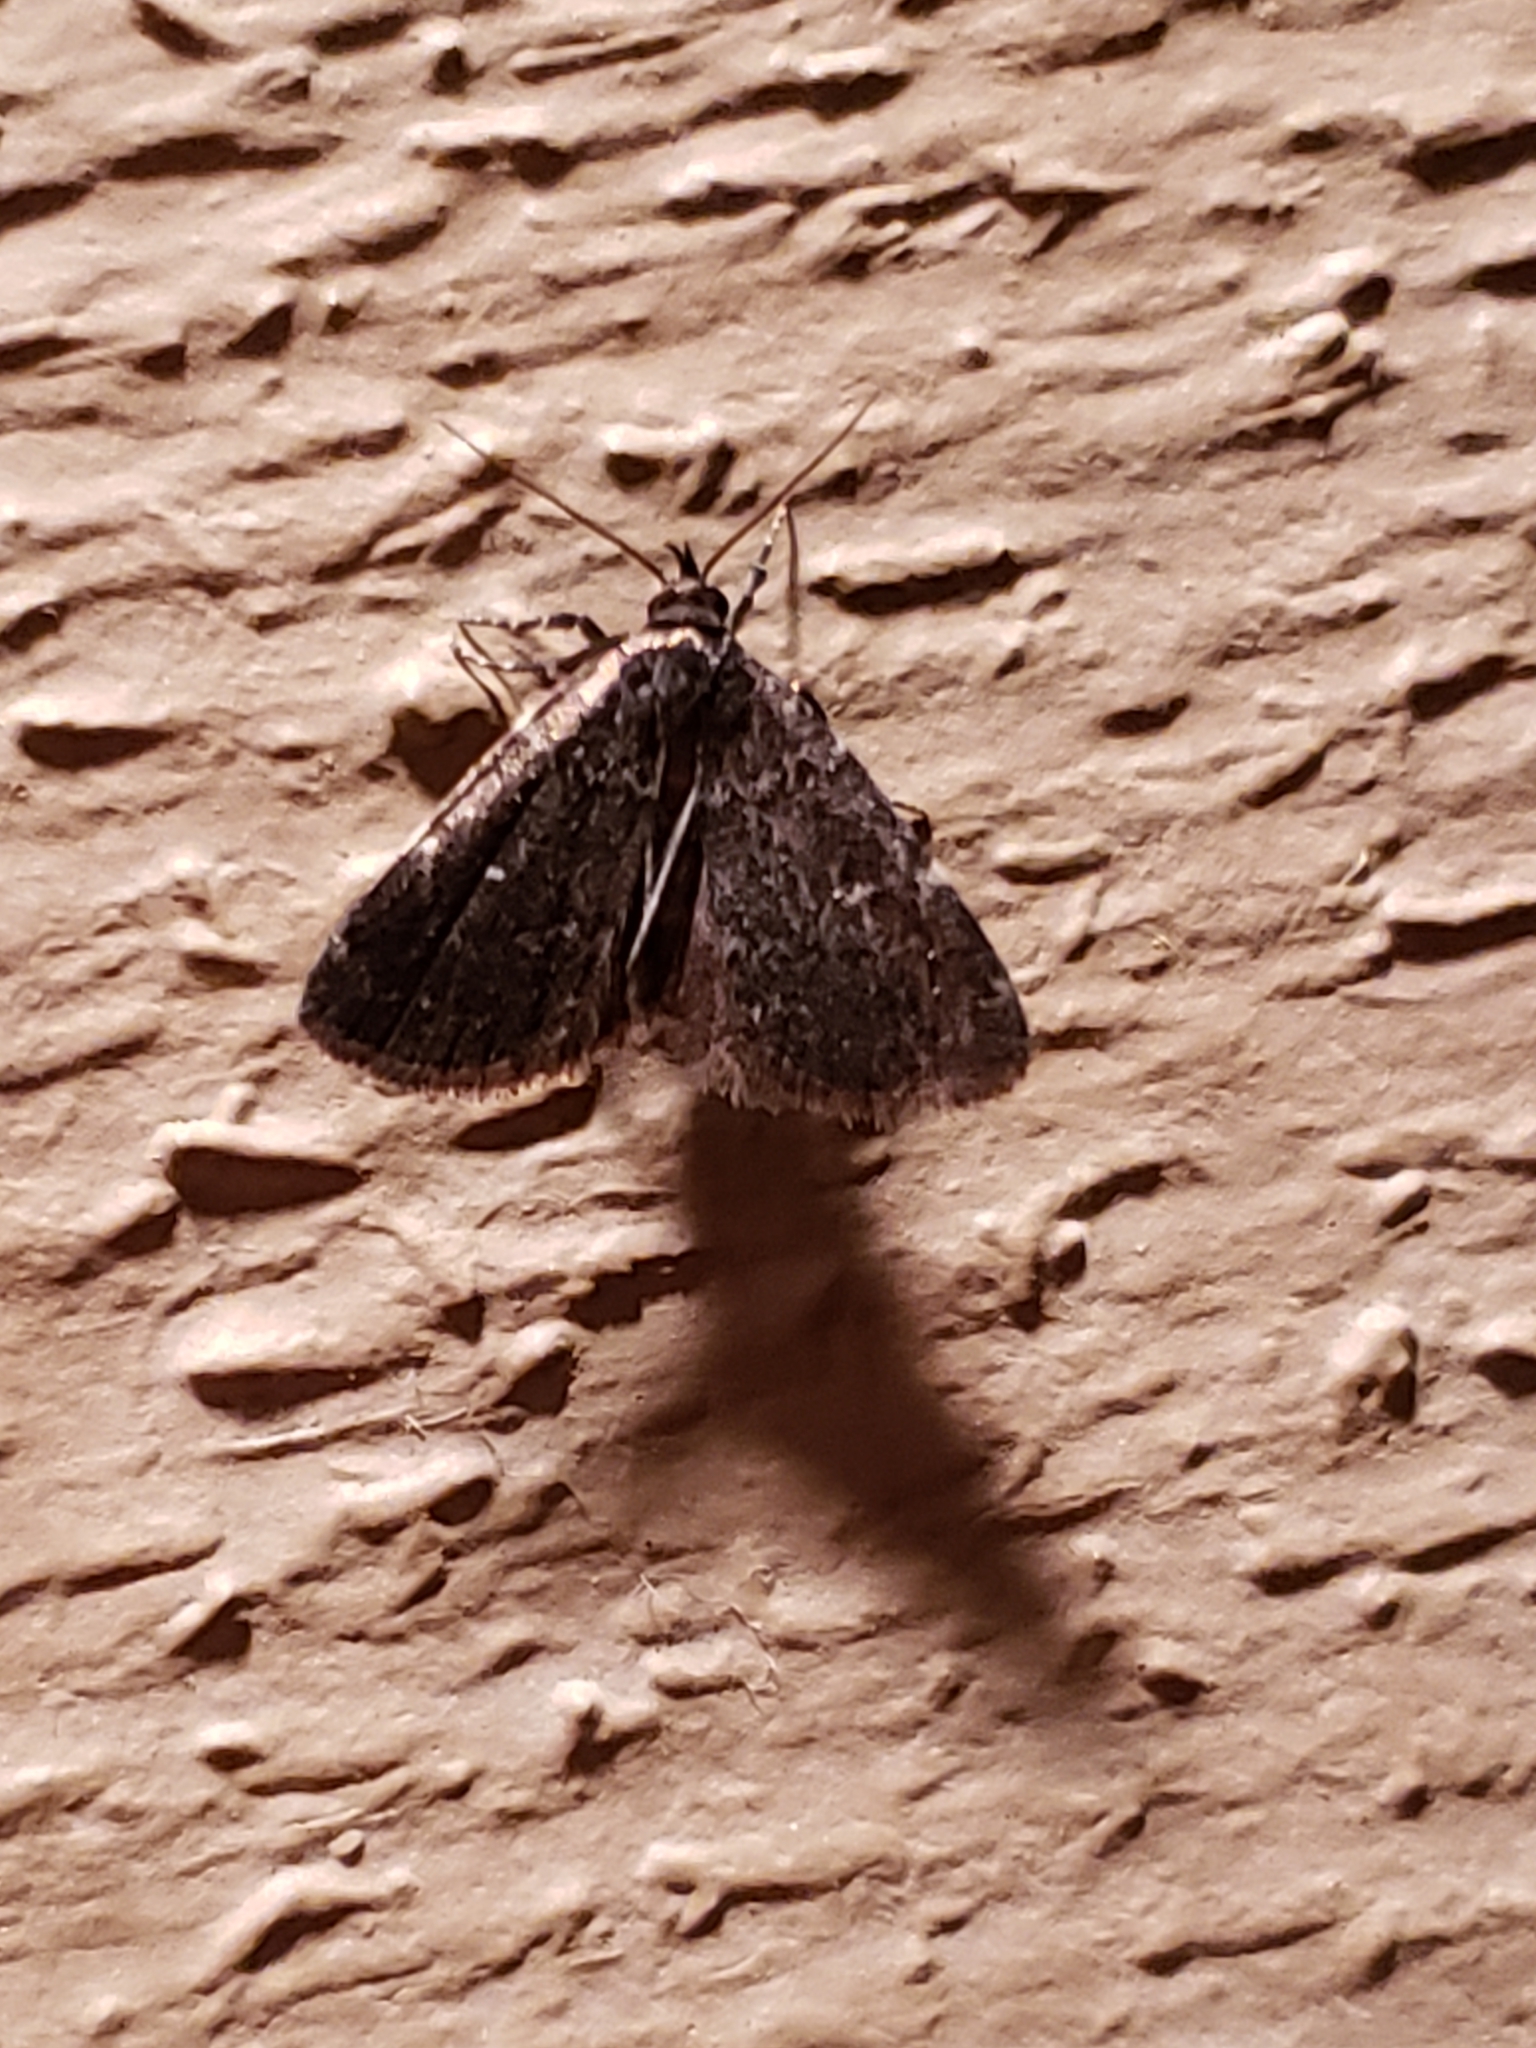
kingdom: Animalia
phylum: Arthropoda
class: Insecta
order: Lepidoptera
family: Erebidae
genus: Idia
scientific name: Idia julia
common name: Julia's idia moth
